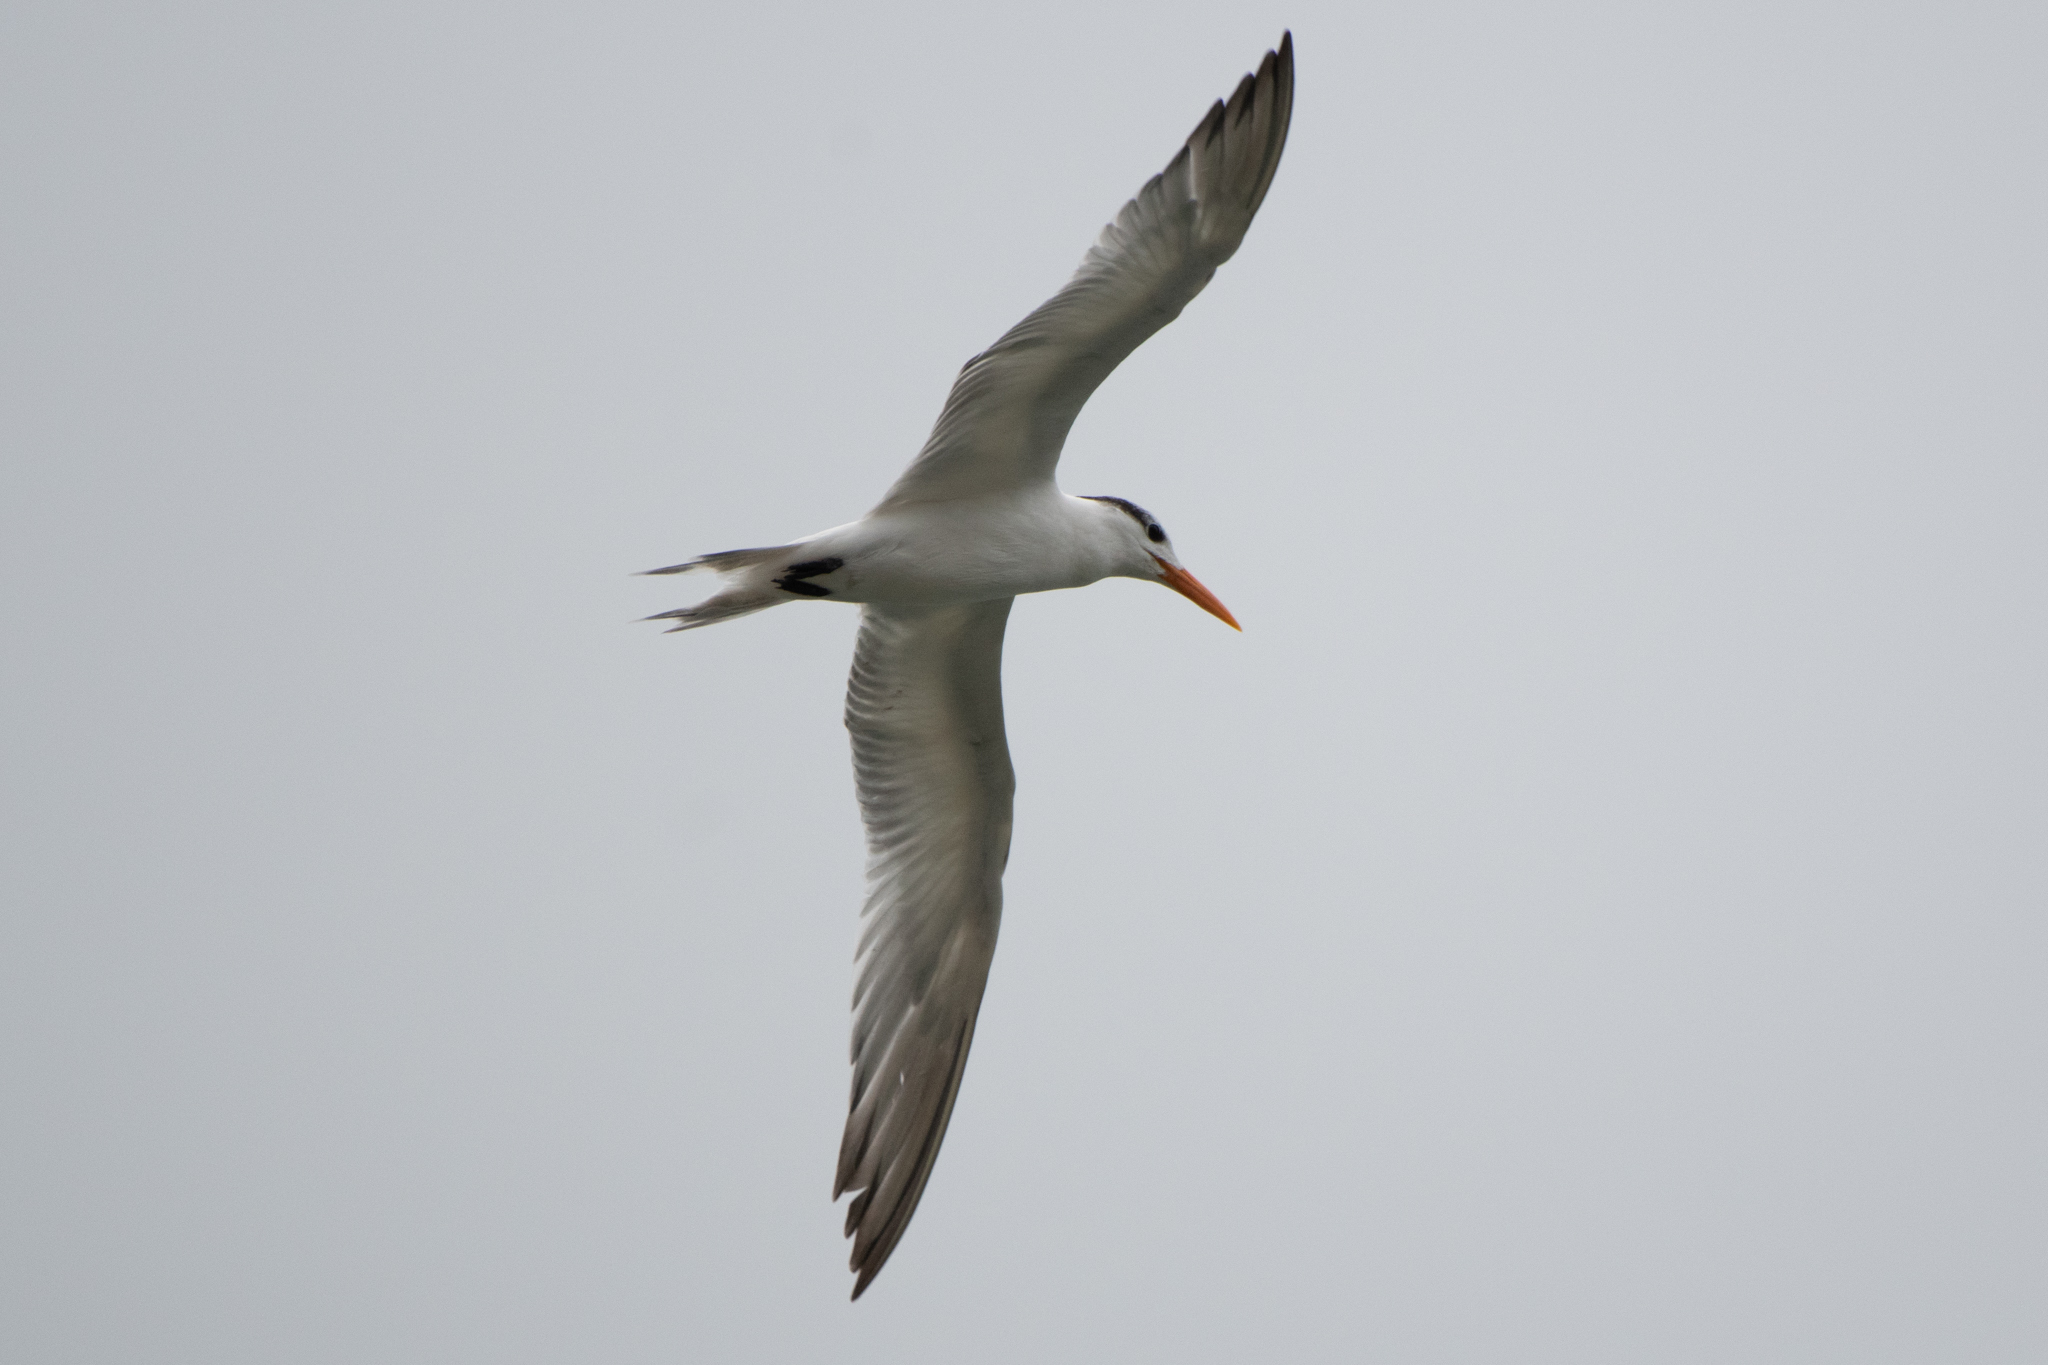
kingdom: Animalia
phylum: Chordata
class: Aves
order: Charadriiformes
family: Laridae
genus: Thalasseus
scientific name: Thalasseus maximus
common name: Royal tern
